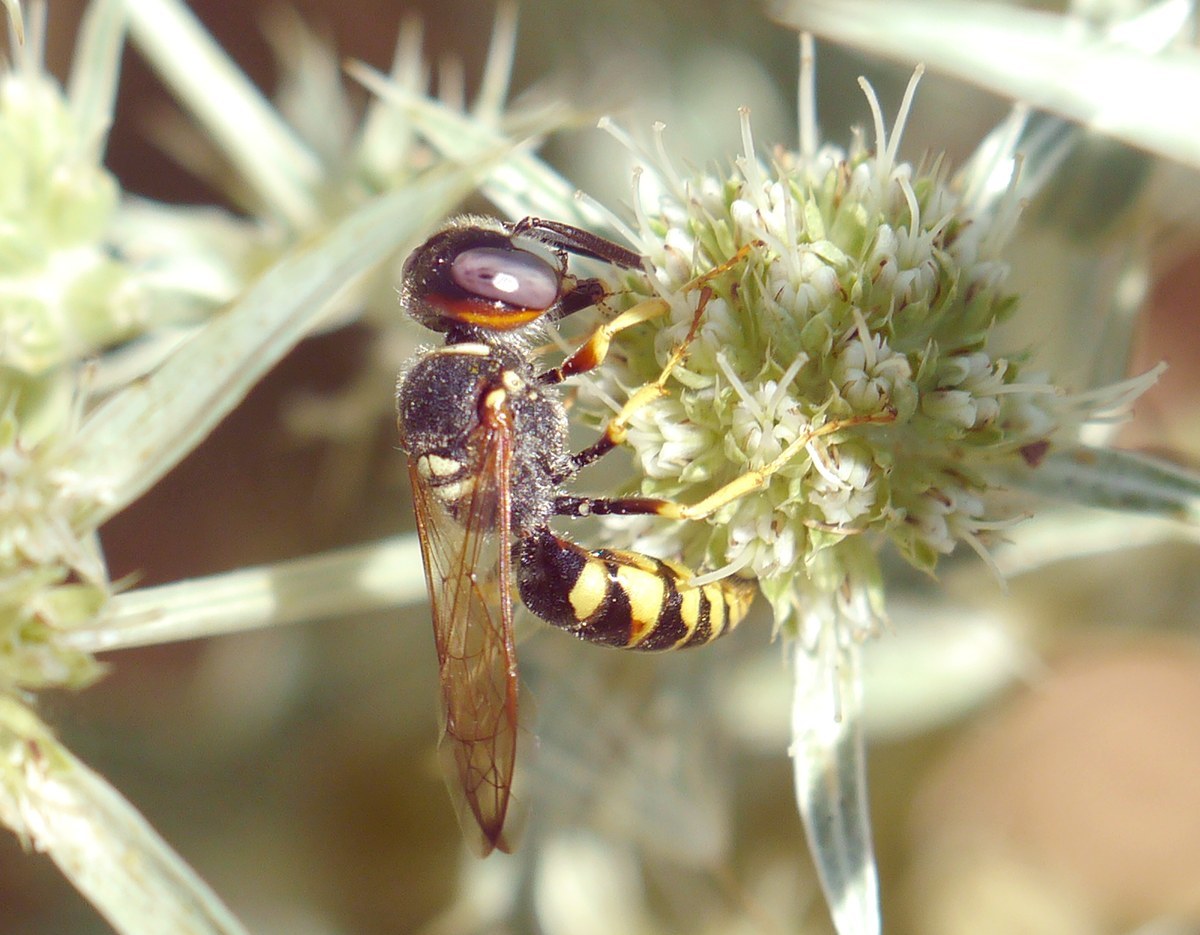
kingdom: Animalia
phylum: Arthropoda
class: Insecta
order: Hymenoptera
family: Crabronidae
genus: Philanthus
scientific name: Philanthus triangulum
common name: Bee wolf
